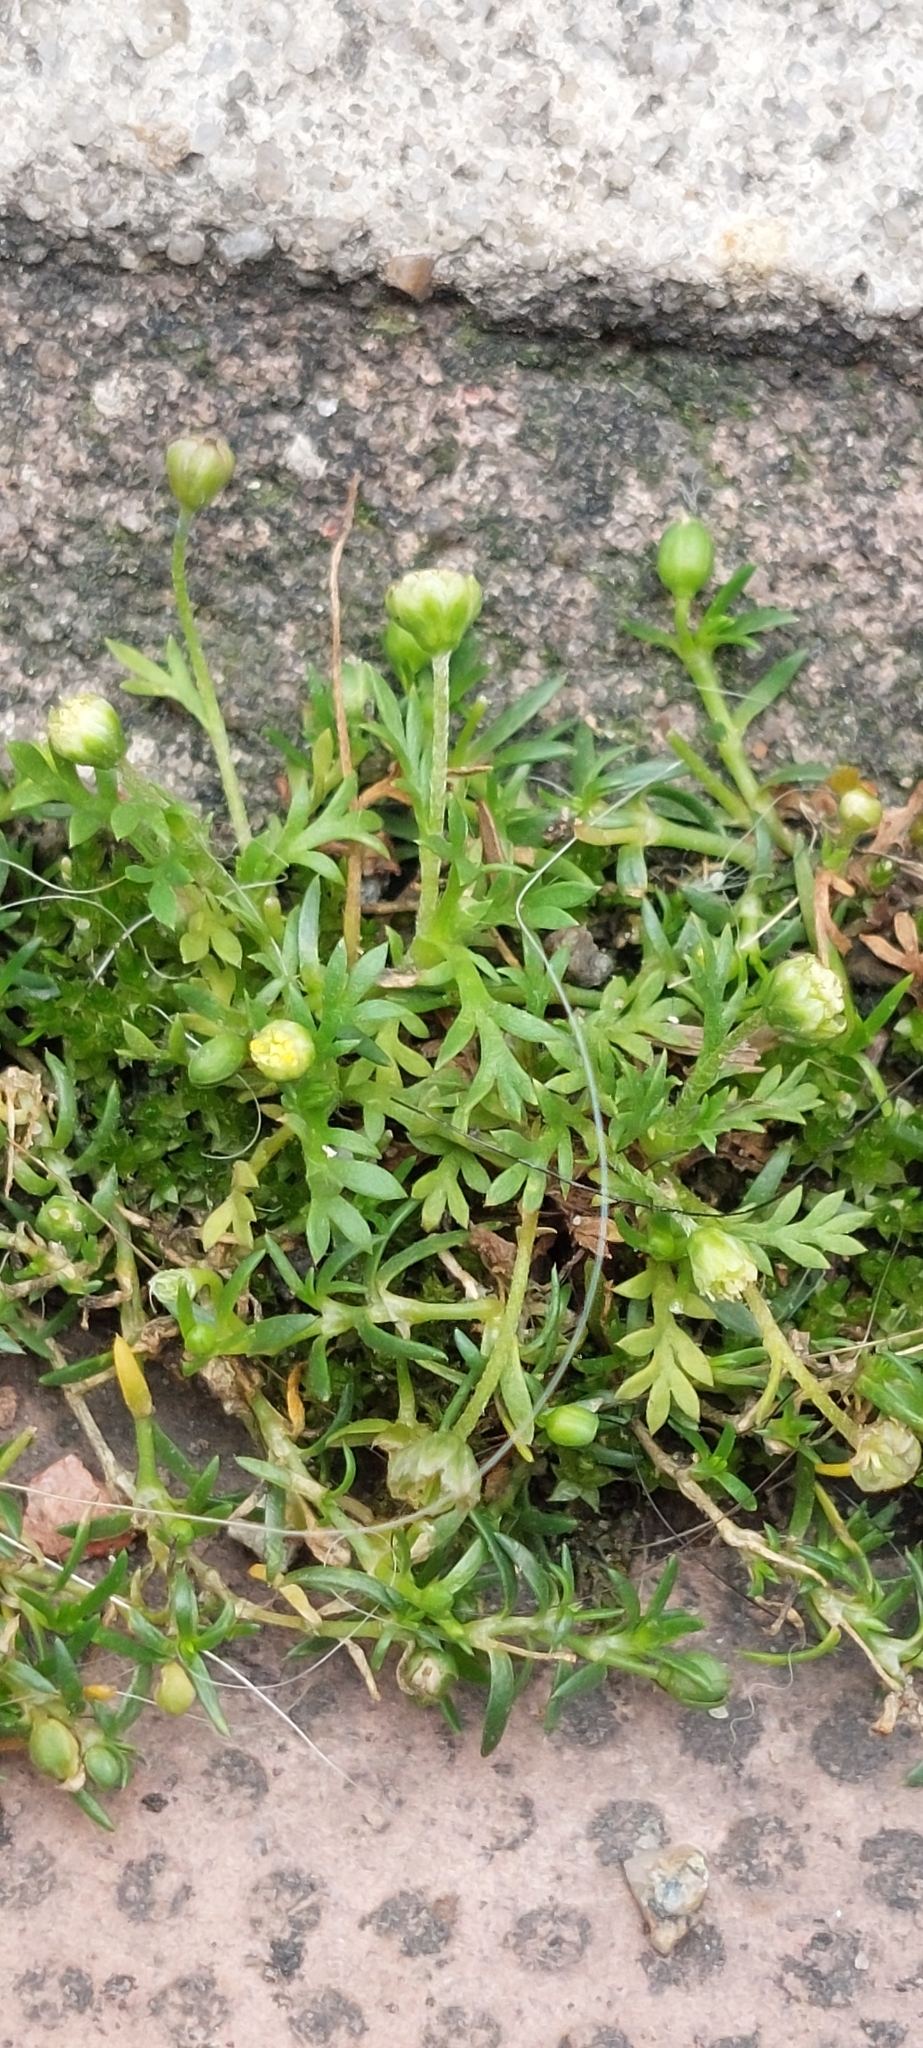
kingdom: Plantae
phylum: Tracheophyta
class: Magnoliopsida
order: Asterales
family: Asteraceae
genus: Cotula
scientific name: Cotula australis
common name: Australian waterbuttons
